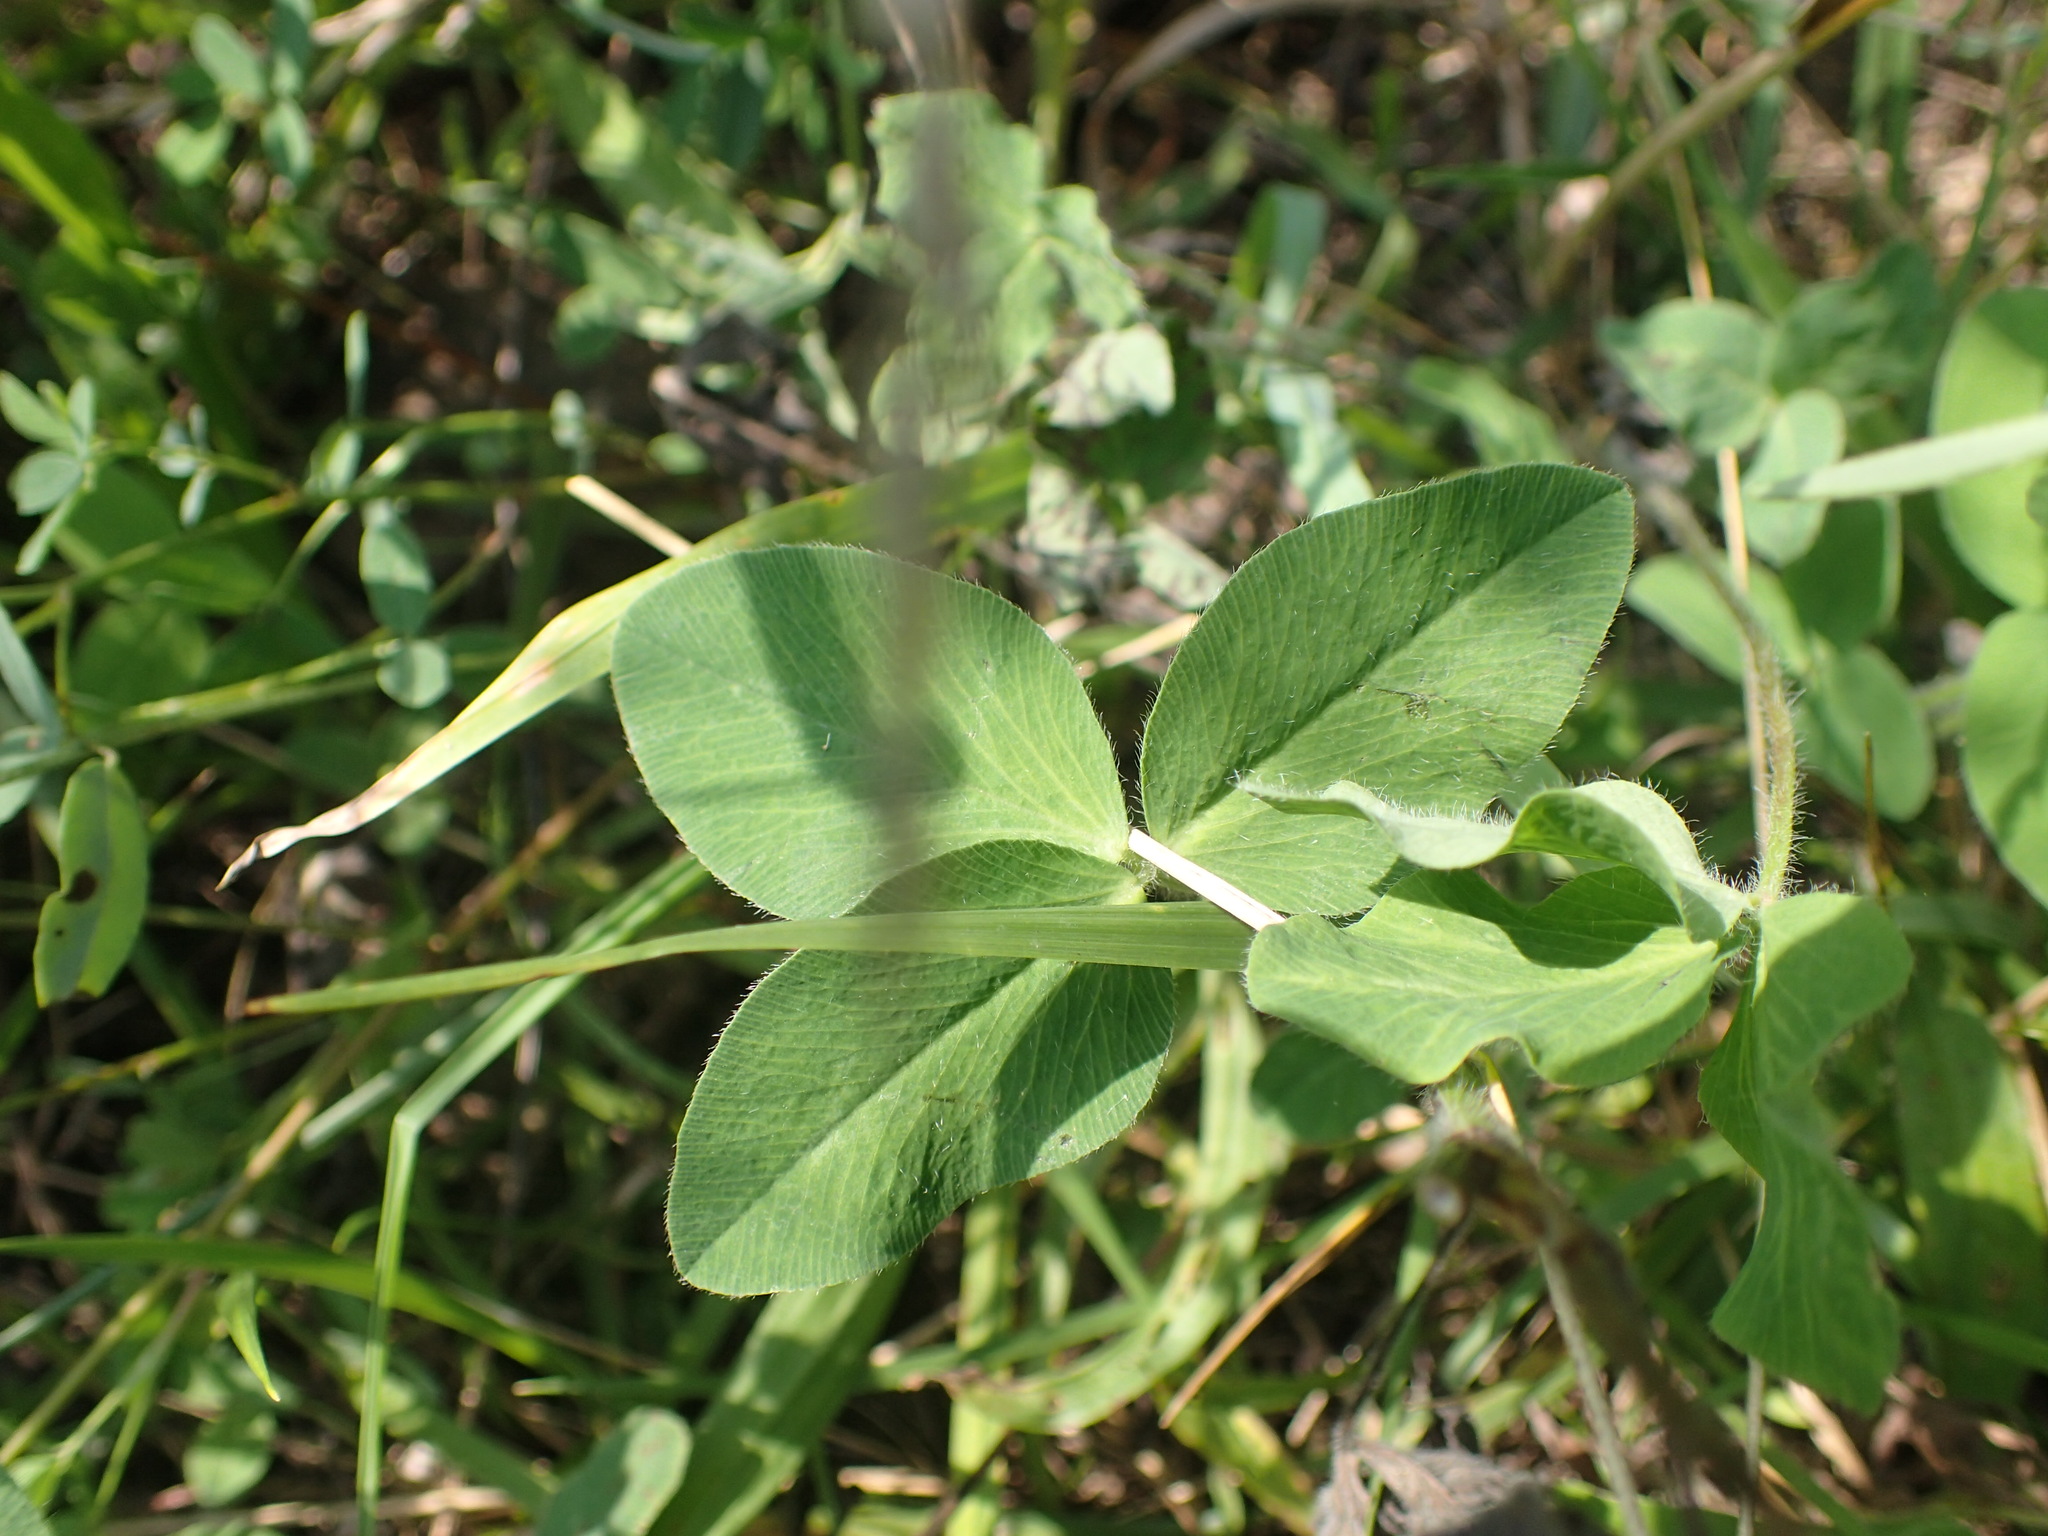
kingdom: Plantae
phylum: Tracheophyta
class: Magnoliopsida
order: Fabales
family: Fabaceae
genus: Trifolium
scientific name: Trifolium pratense
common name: Red clover
